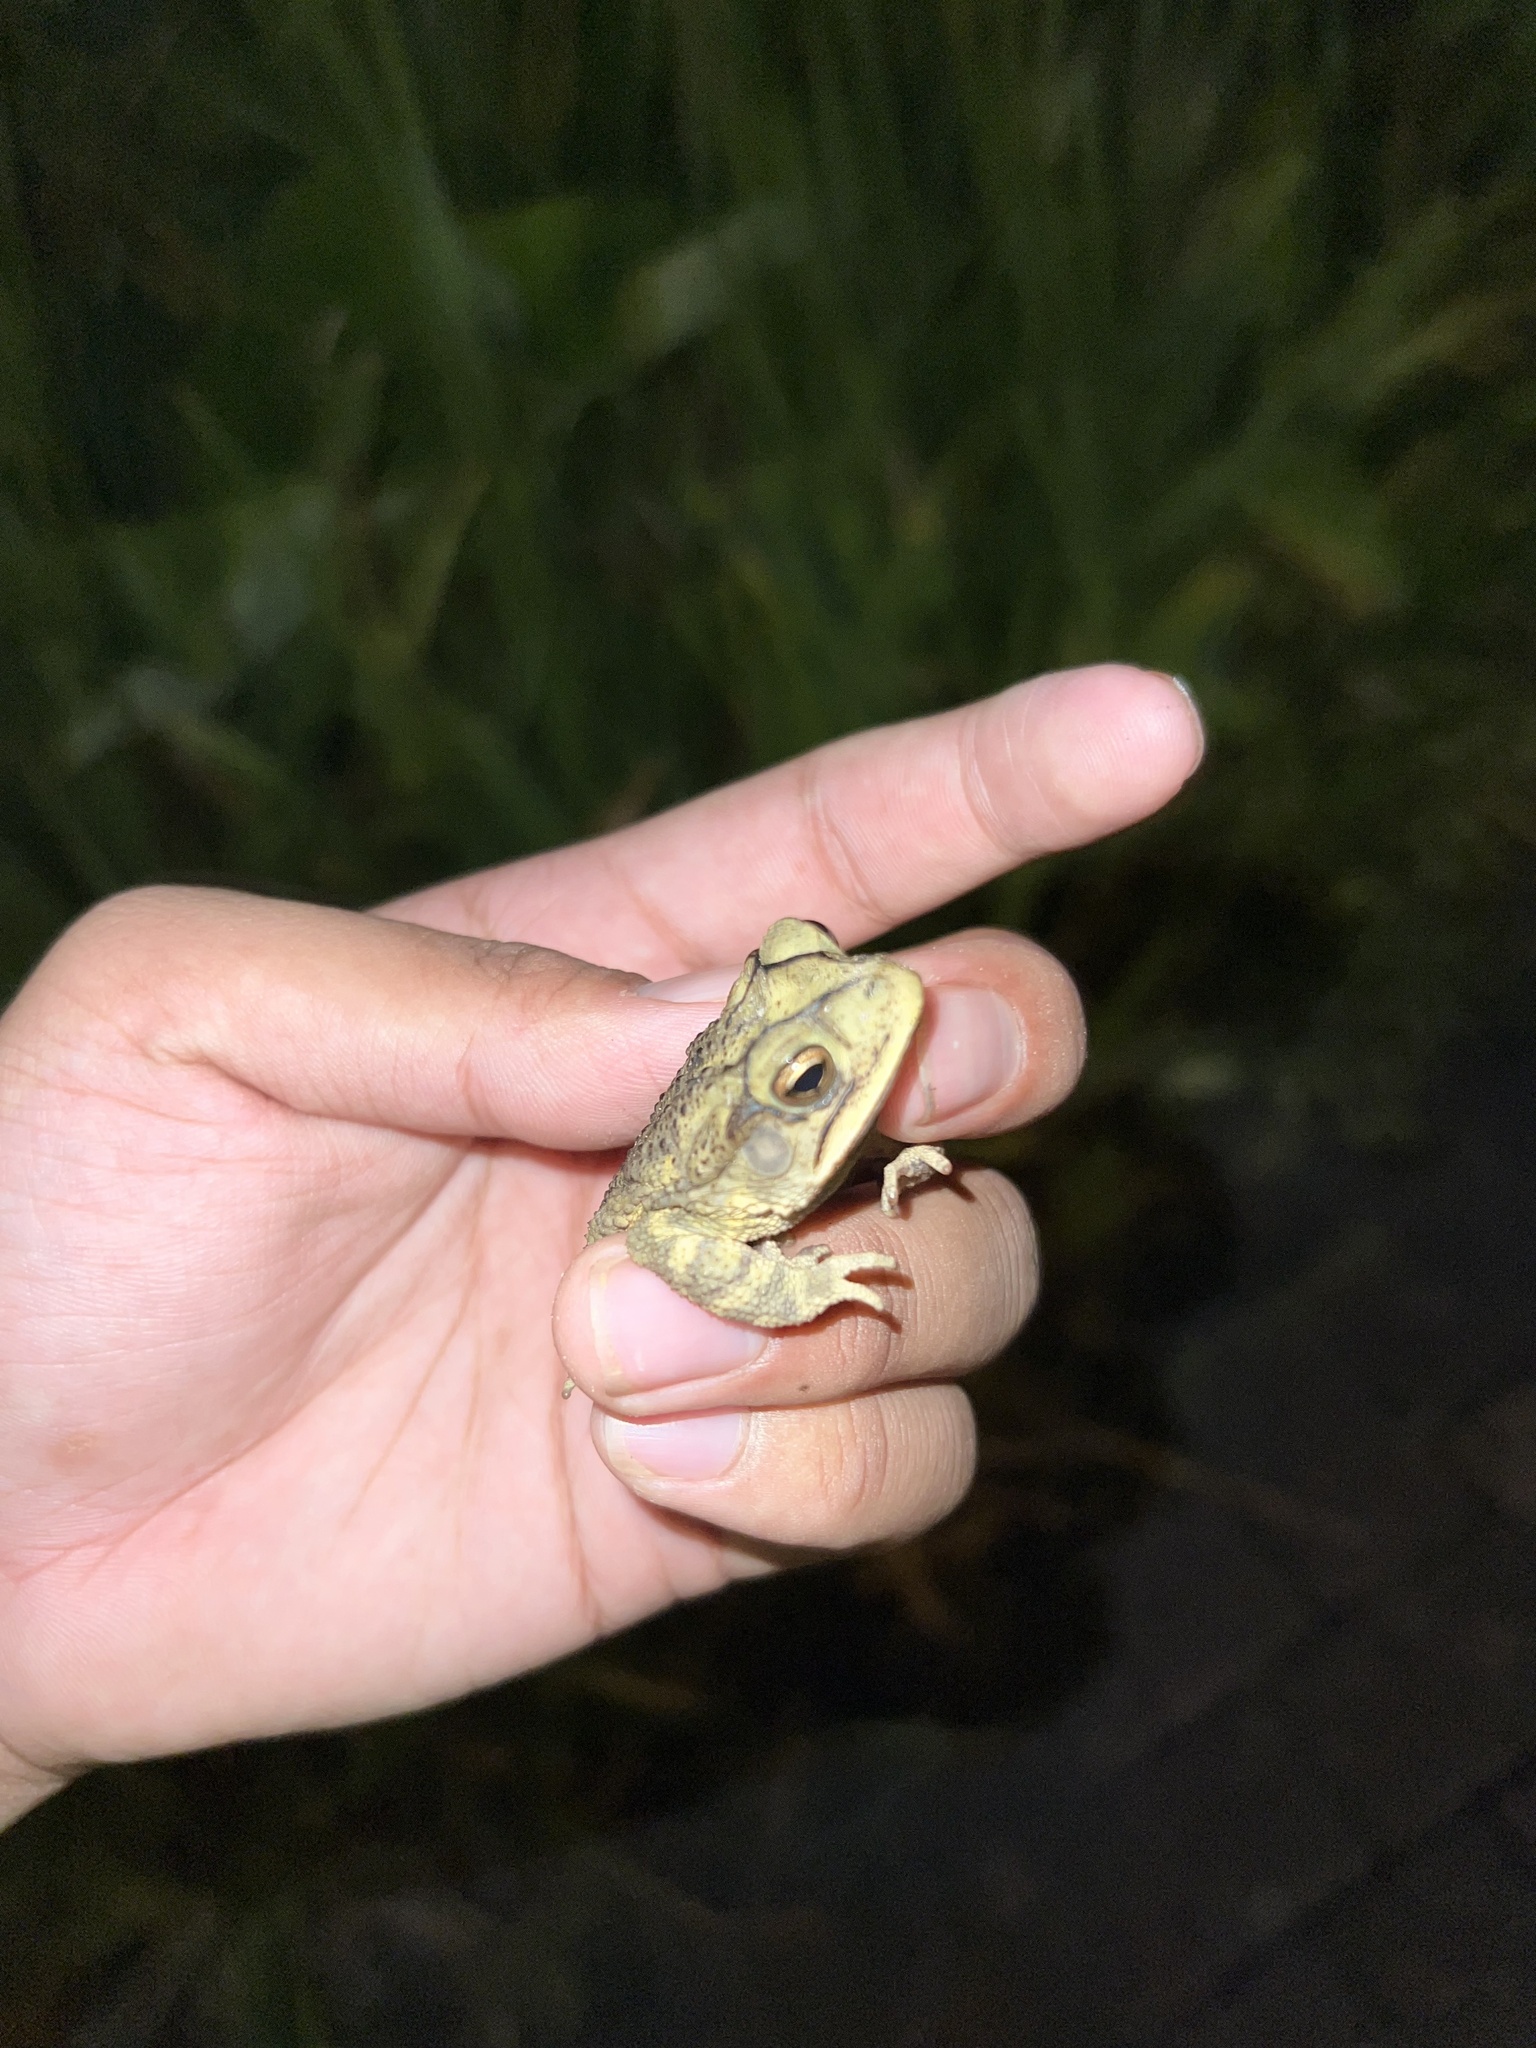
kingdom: Animalia
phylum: Chordata
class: Amphibia
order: Anura
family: Bufonidae
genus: Incilius
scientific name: Incilius nebulifer
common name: Gulf coast toad
